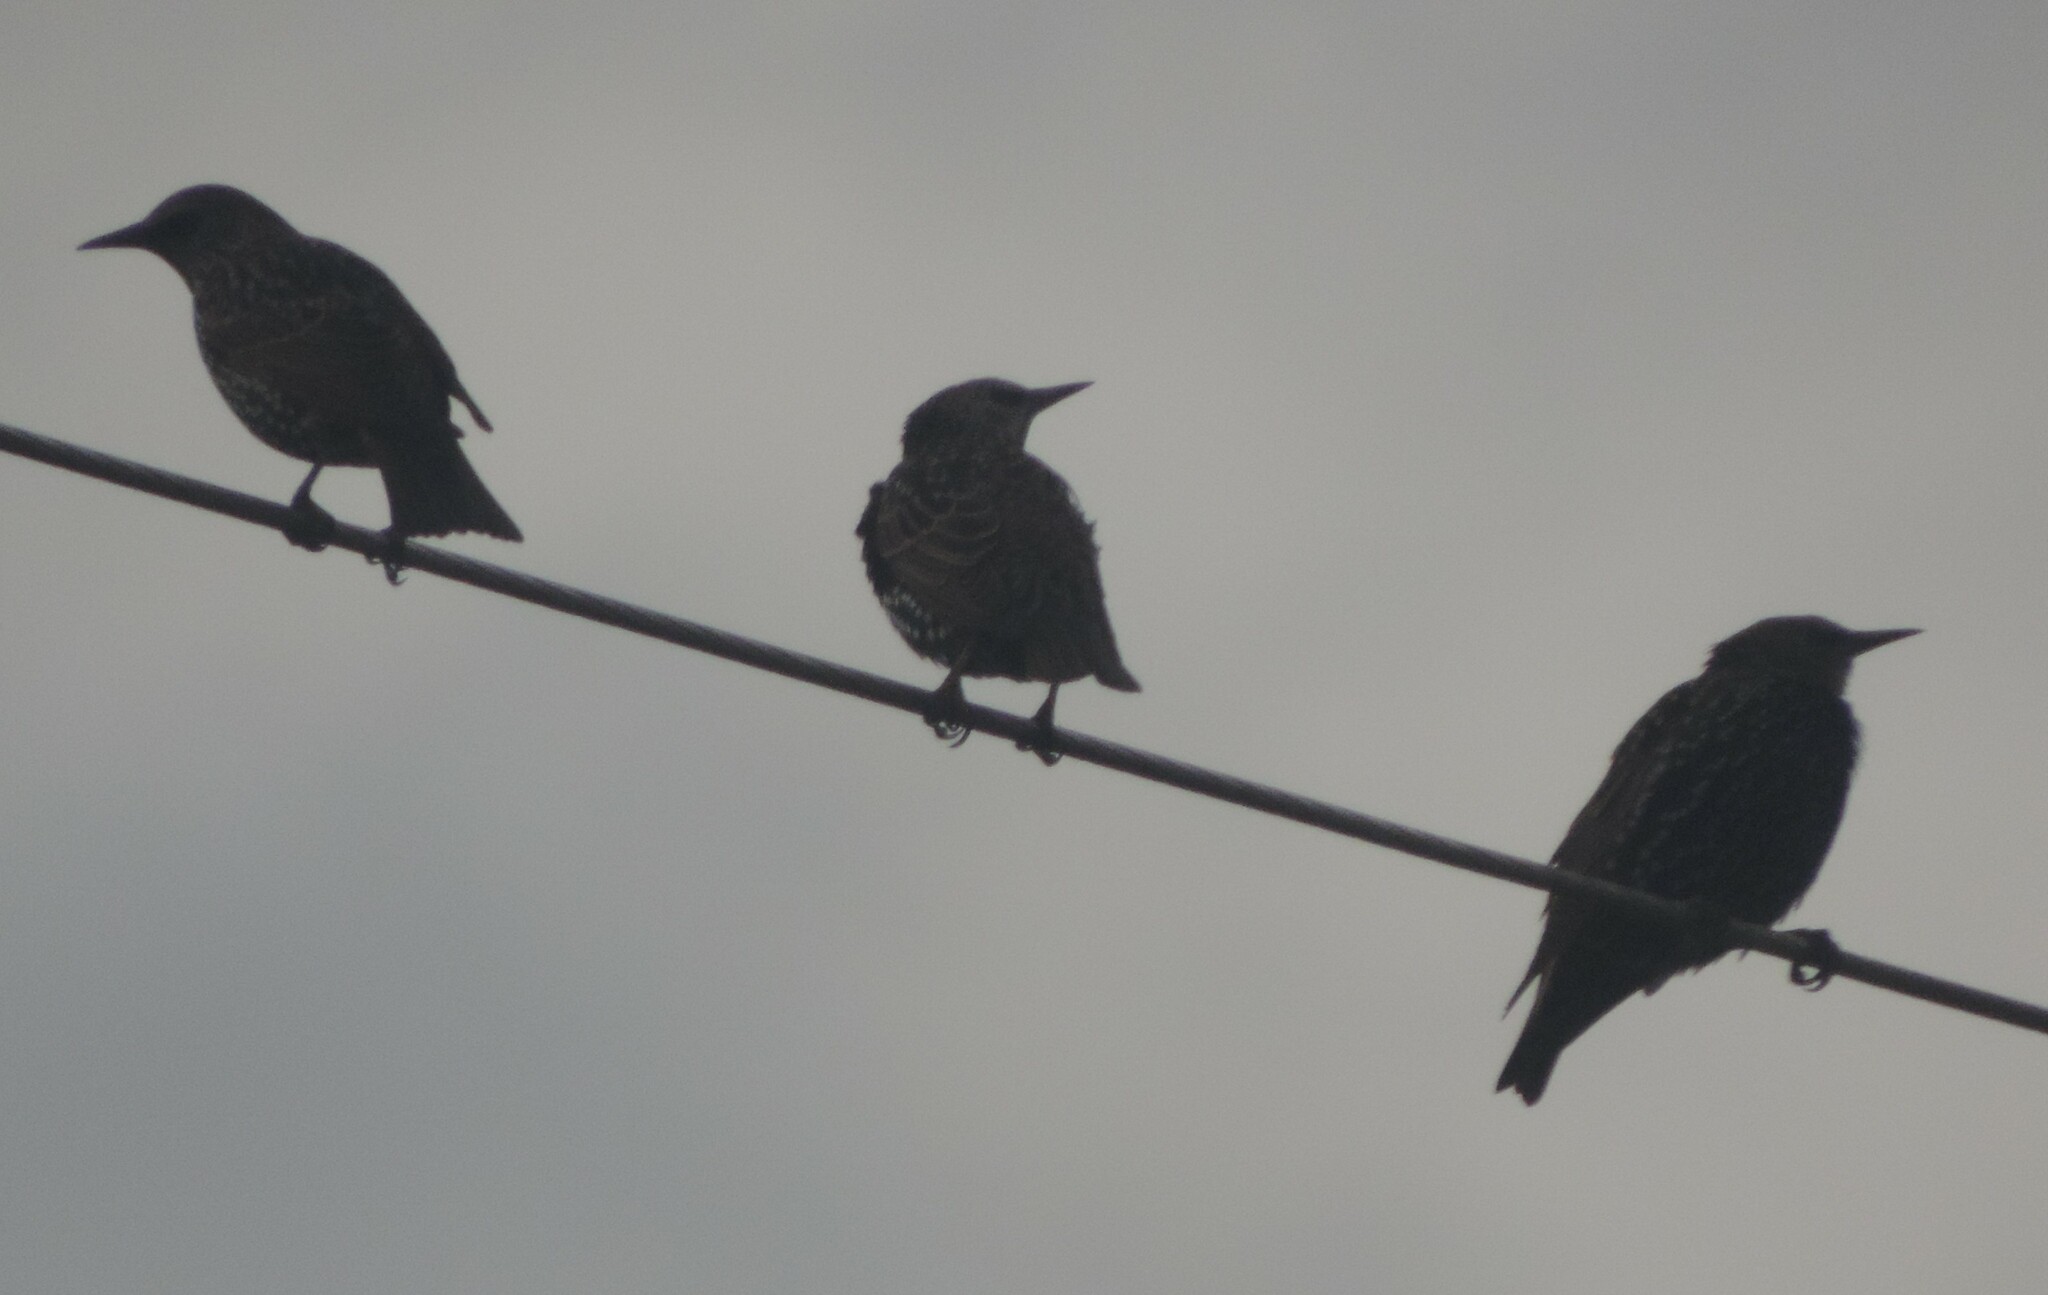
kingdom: Animalia
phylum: Chordata
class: Aves
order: Passeriformes
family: Sturnidae
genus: Sturnus
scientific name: Sturnus vulgaris
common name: Common starling
